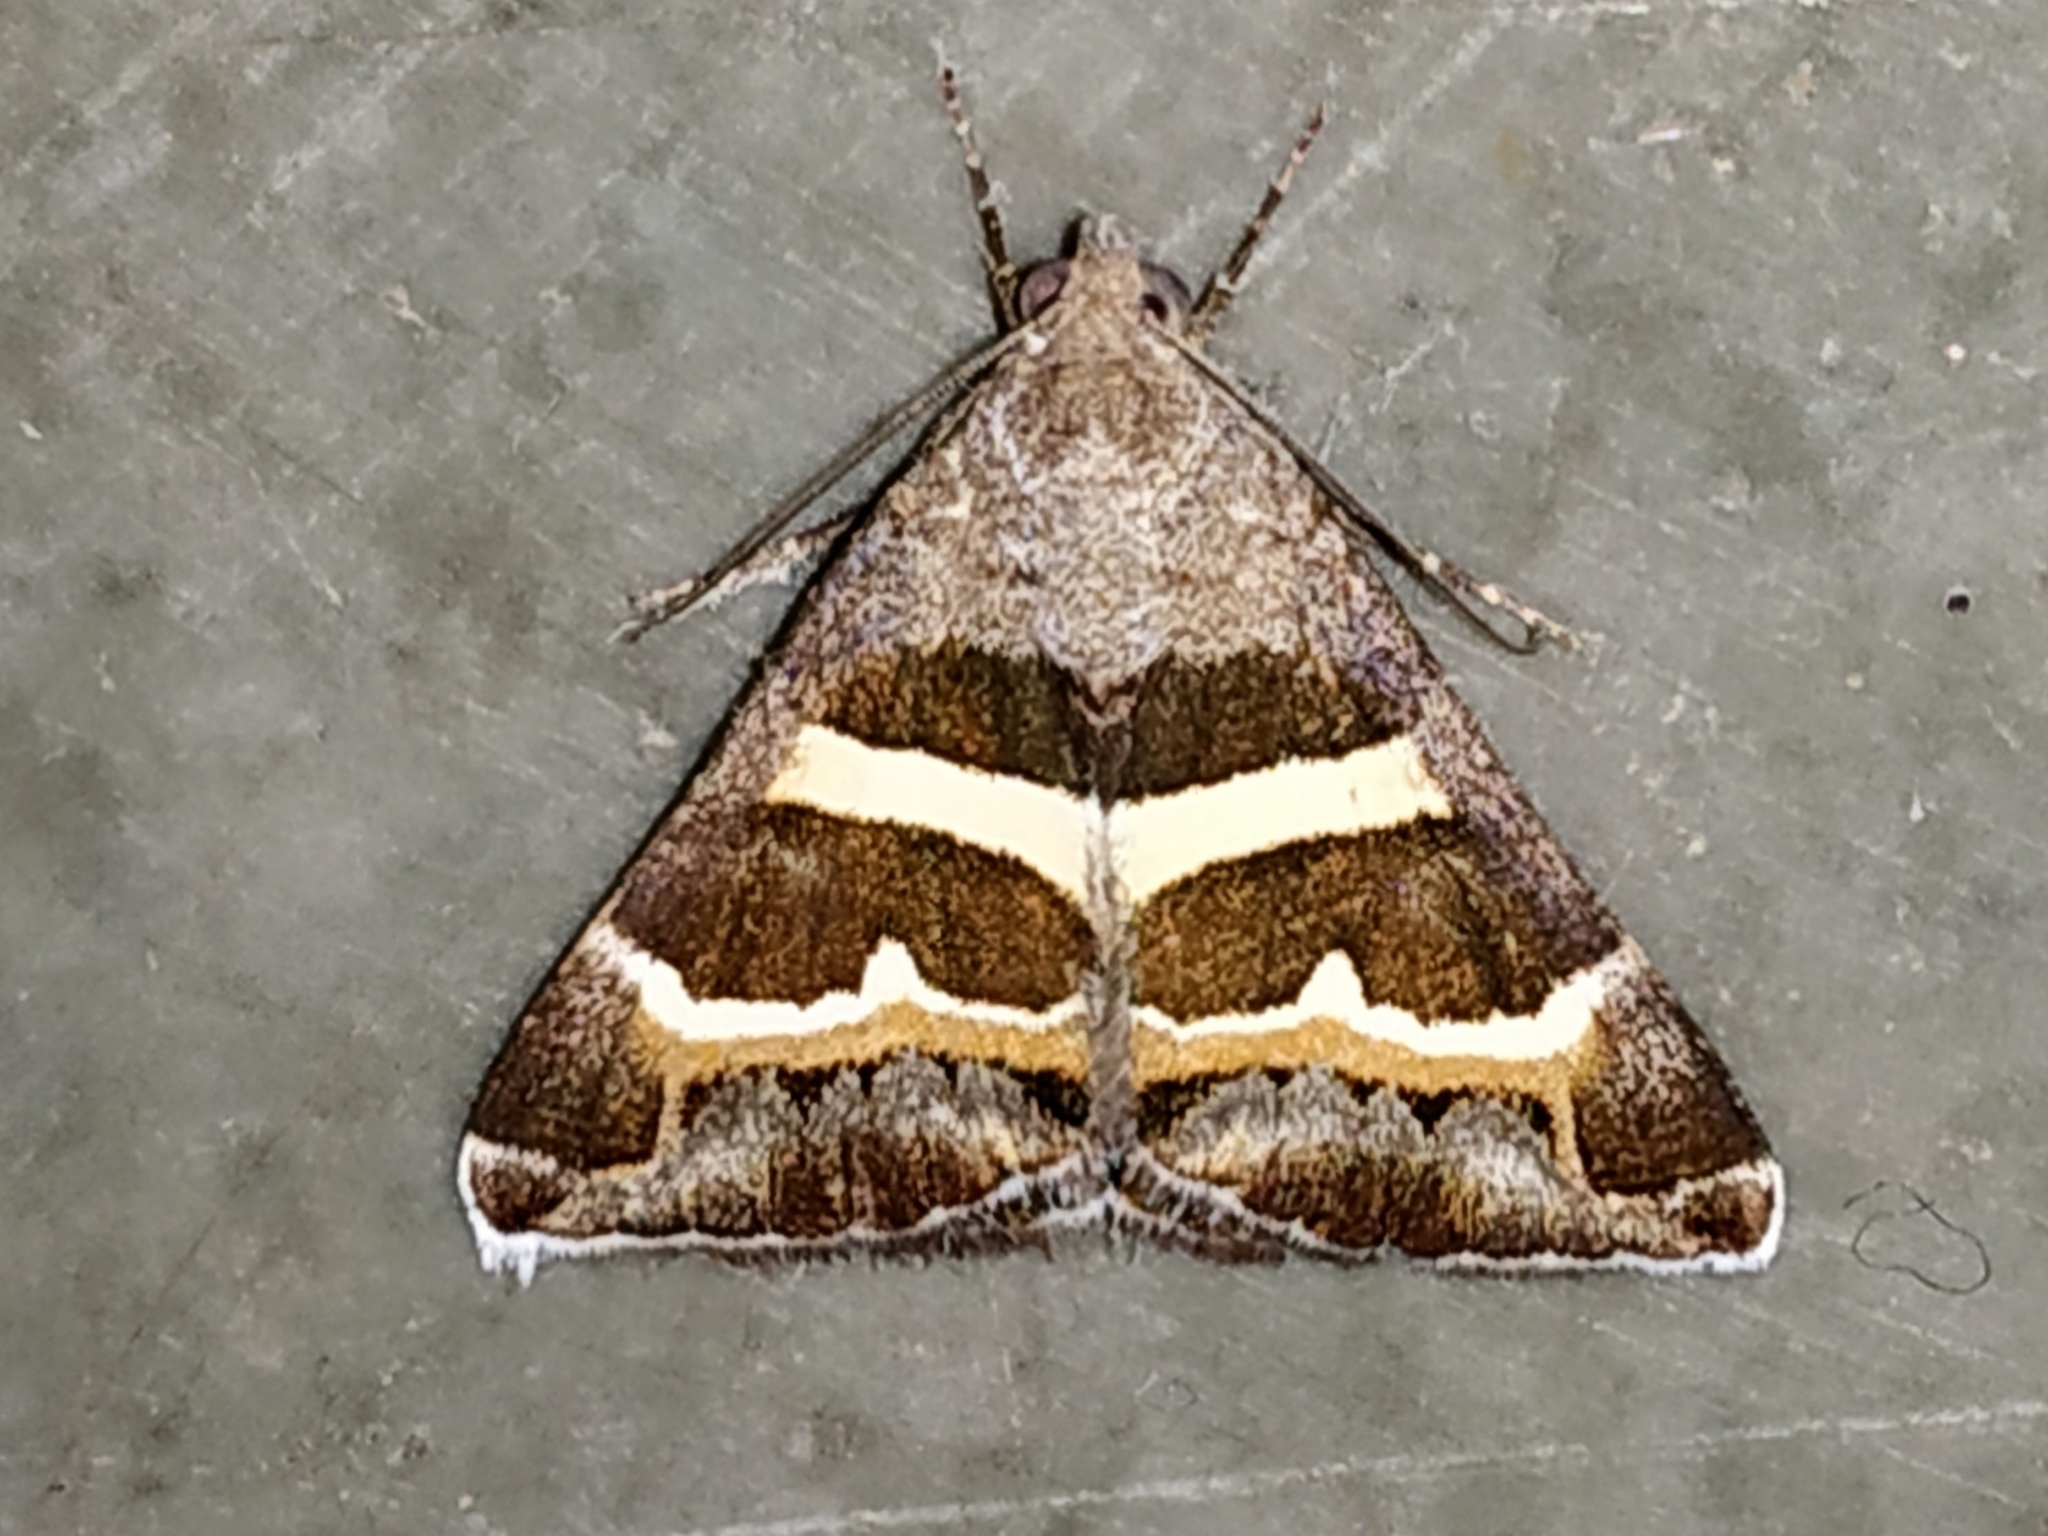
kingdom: Animalia
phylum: Arthropoda
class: Insecta
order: Lepidoptera
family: Erebidae
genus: Grammodes
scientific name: Grammodes stolida
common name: Geometrician
